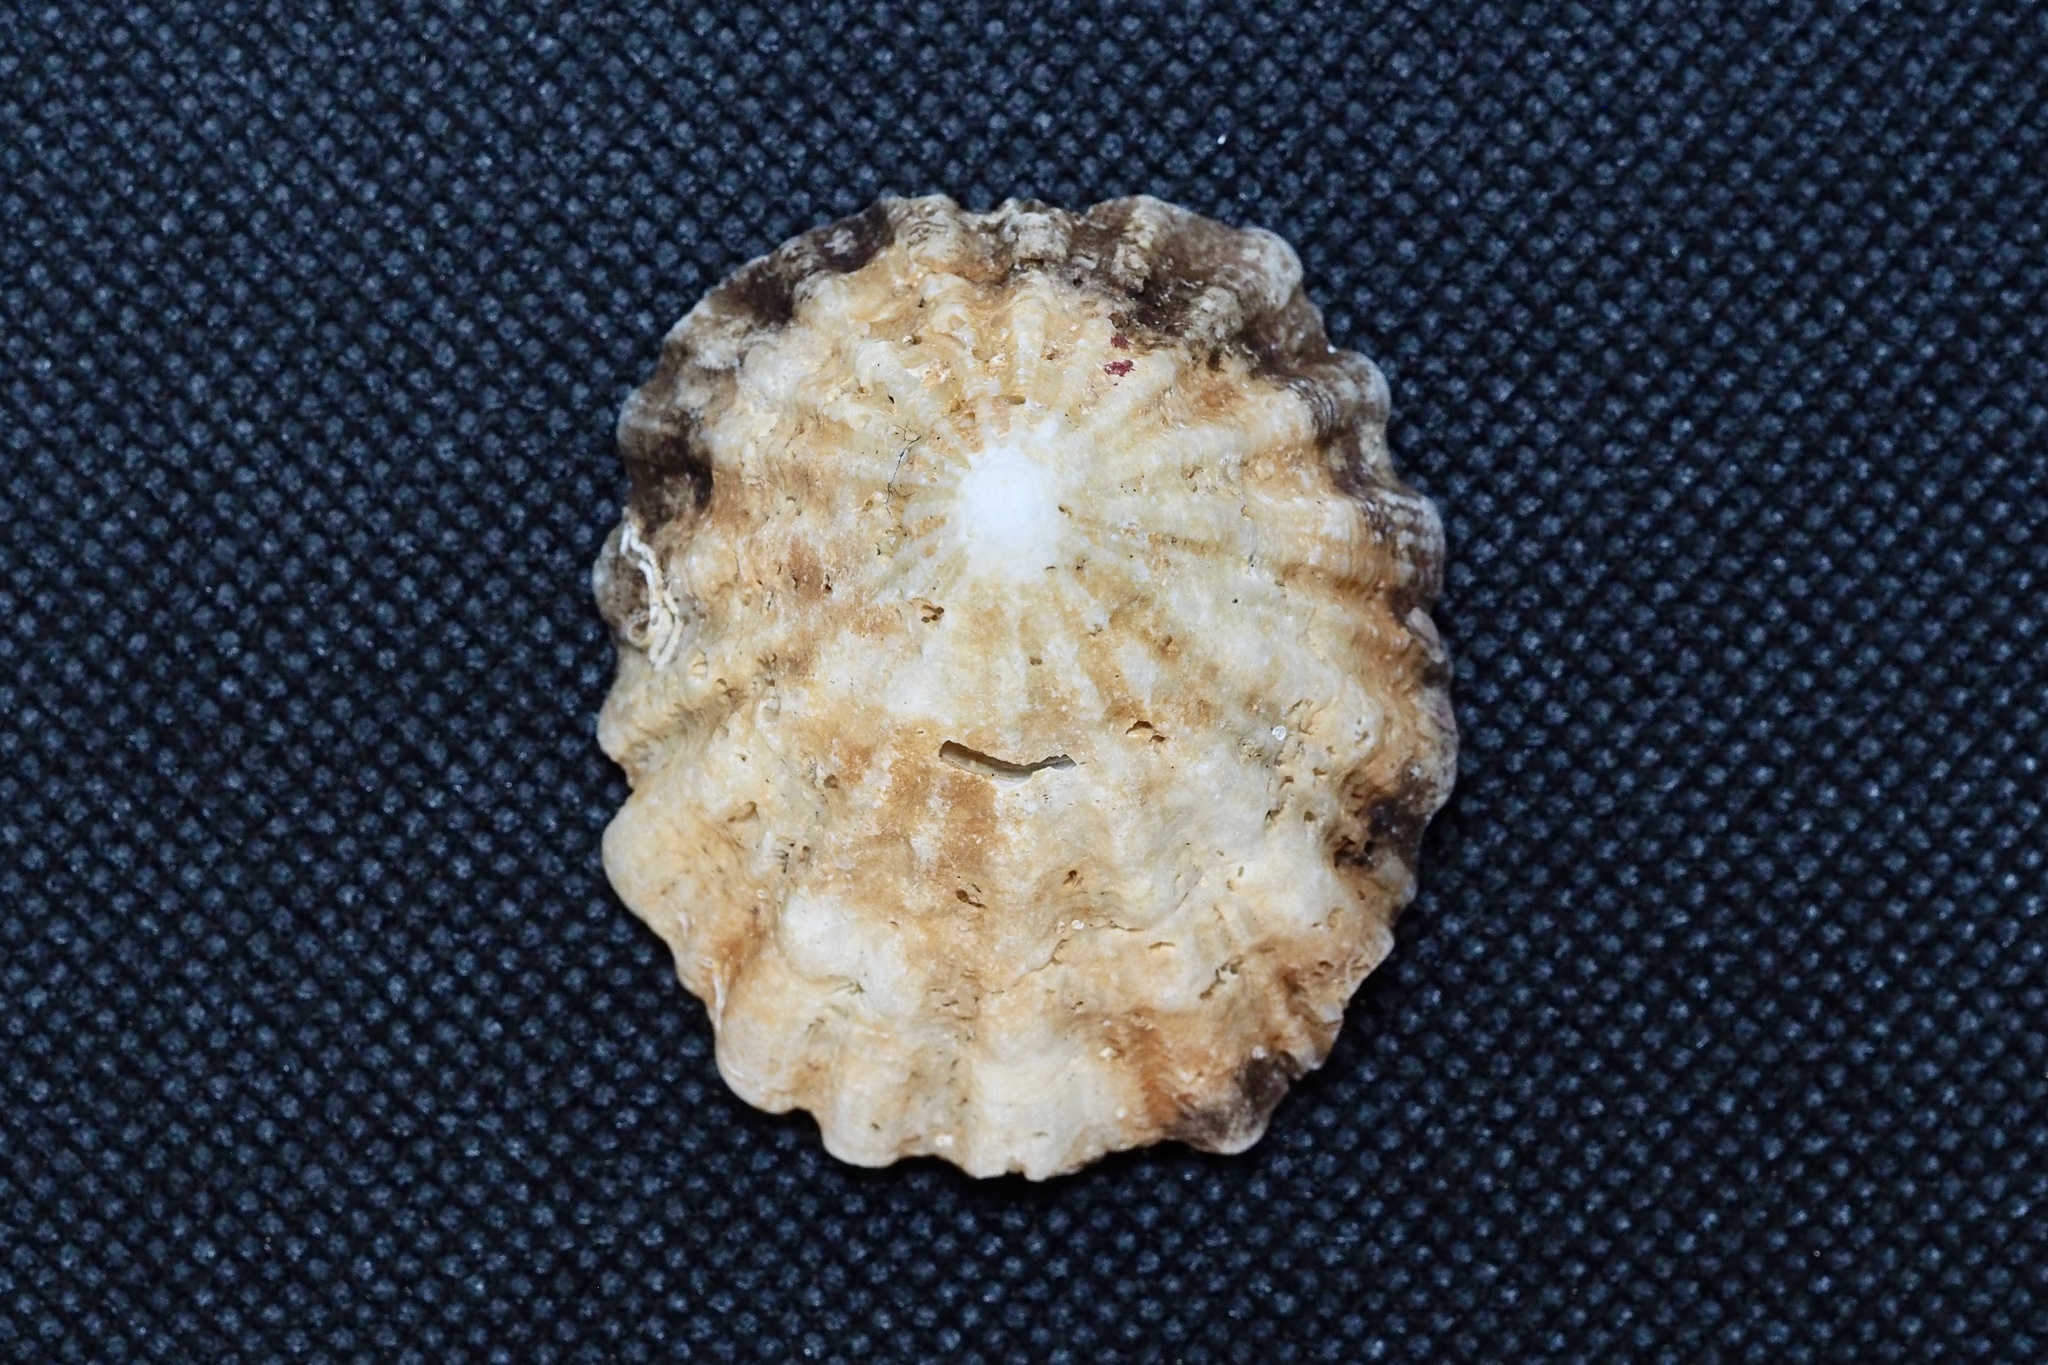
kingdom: Animalia
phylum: Mollusca
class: Gastropoda
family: Lottiidae
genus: Niveotectura
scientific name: Niveotectura pallida
